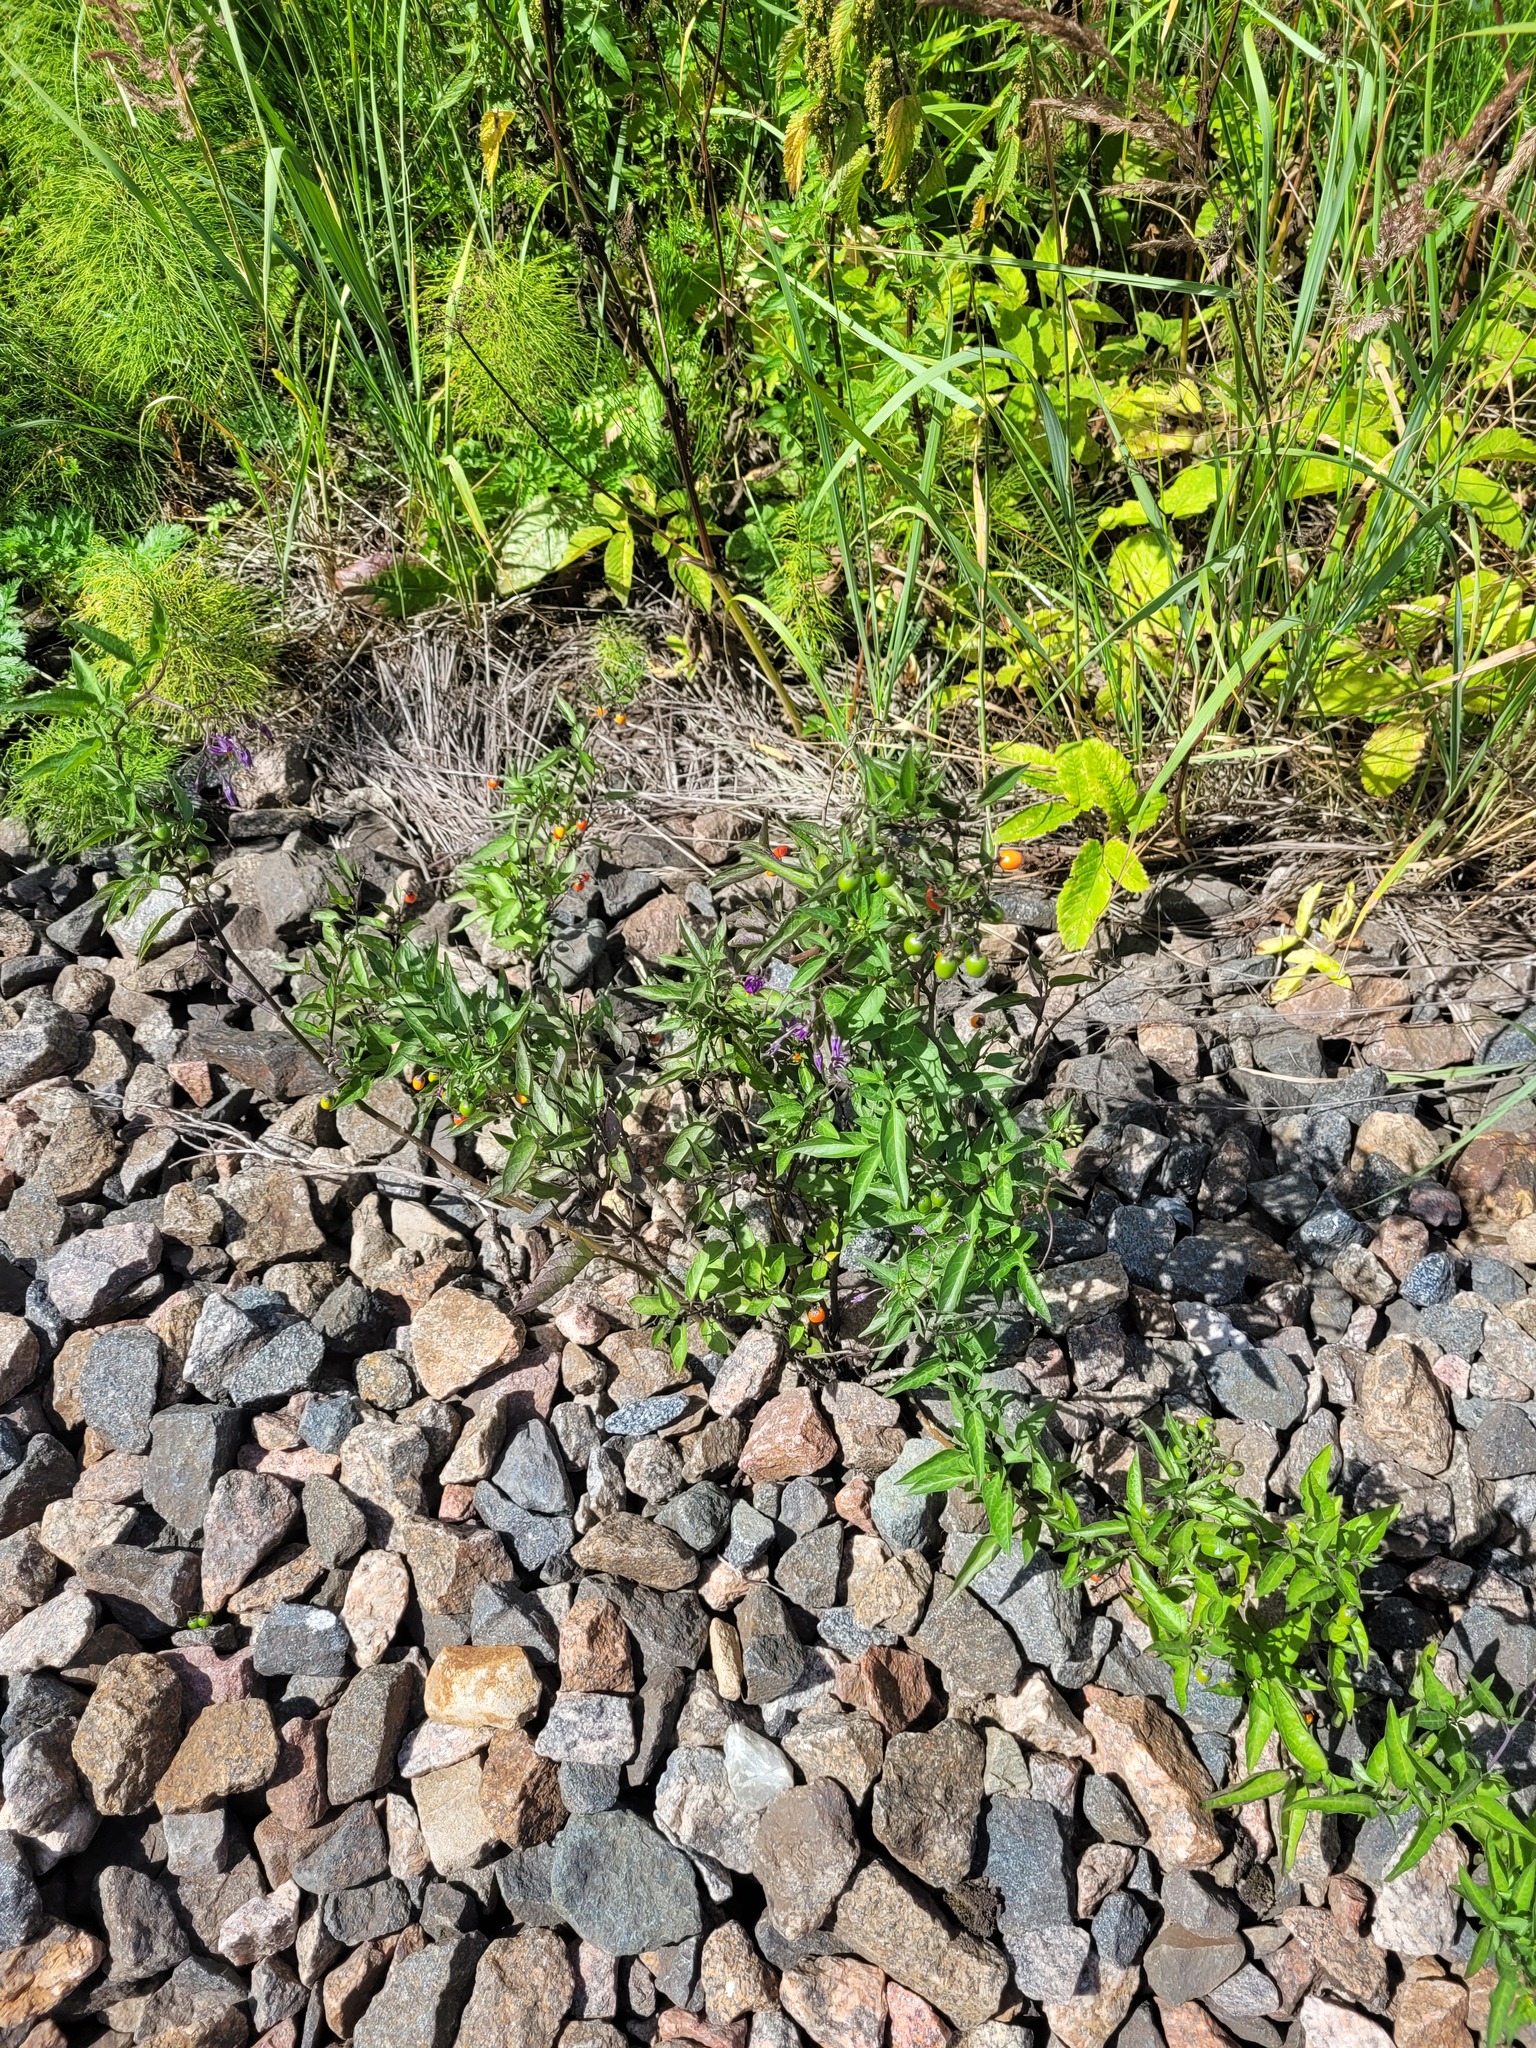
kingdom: Plantae
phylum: Tracheophyta
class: Magnoliopsida
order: Solanales
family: Solanaceae
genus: Solanum
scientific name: Solanum dulcamara
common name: Climbing nightshade
